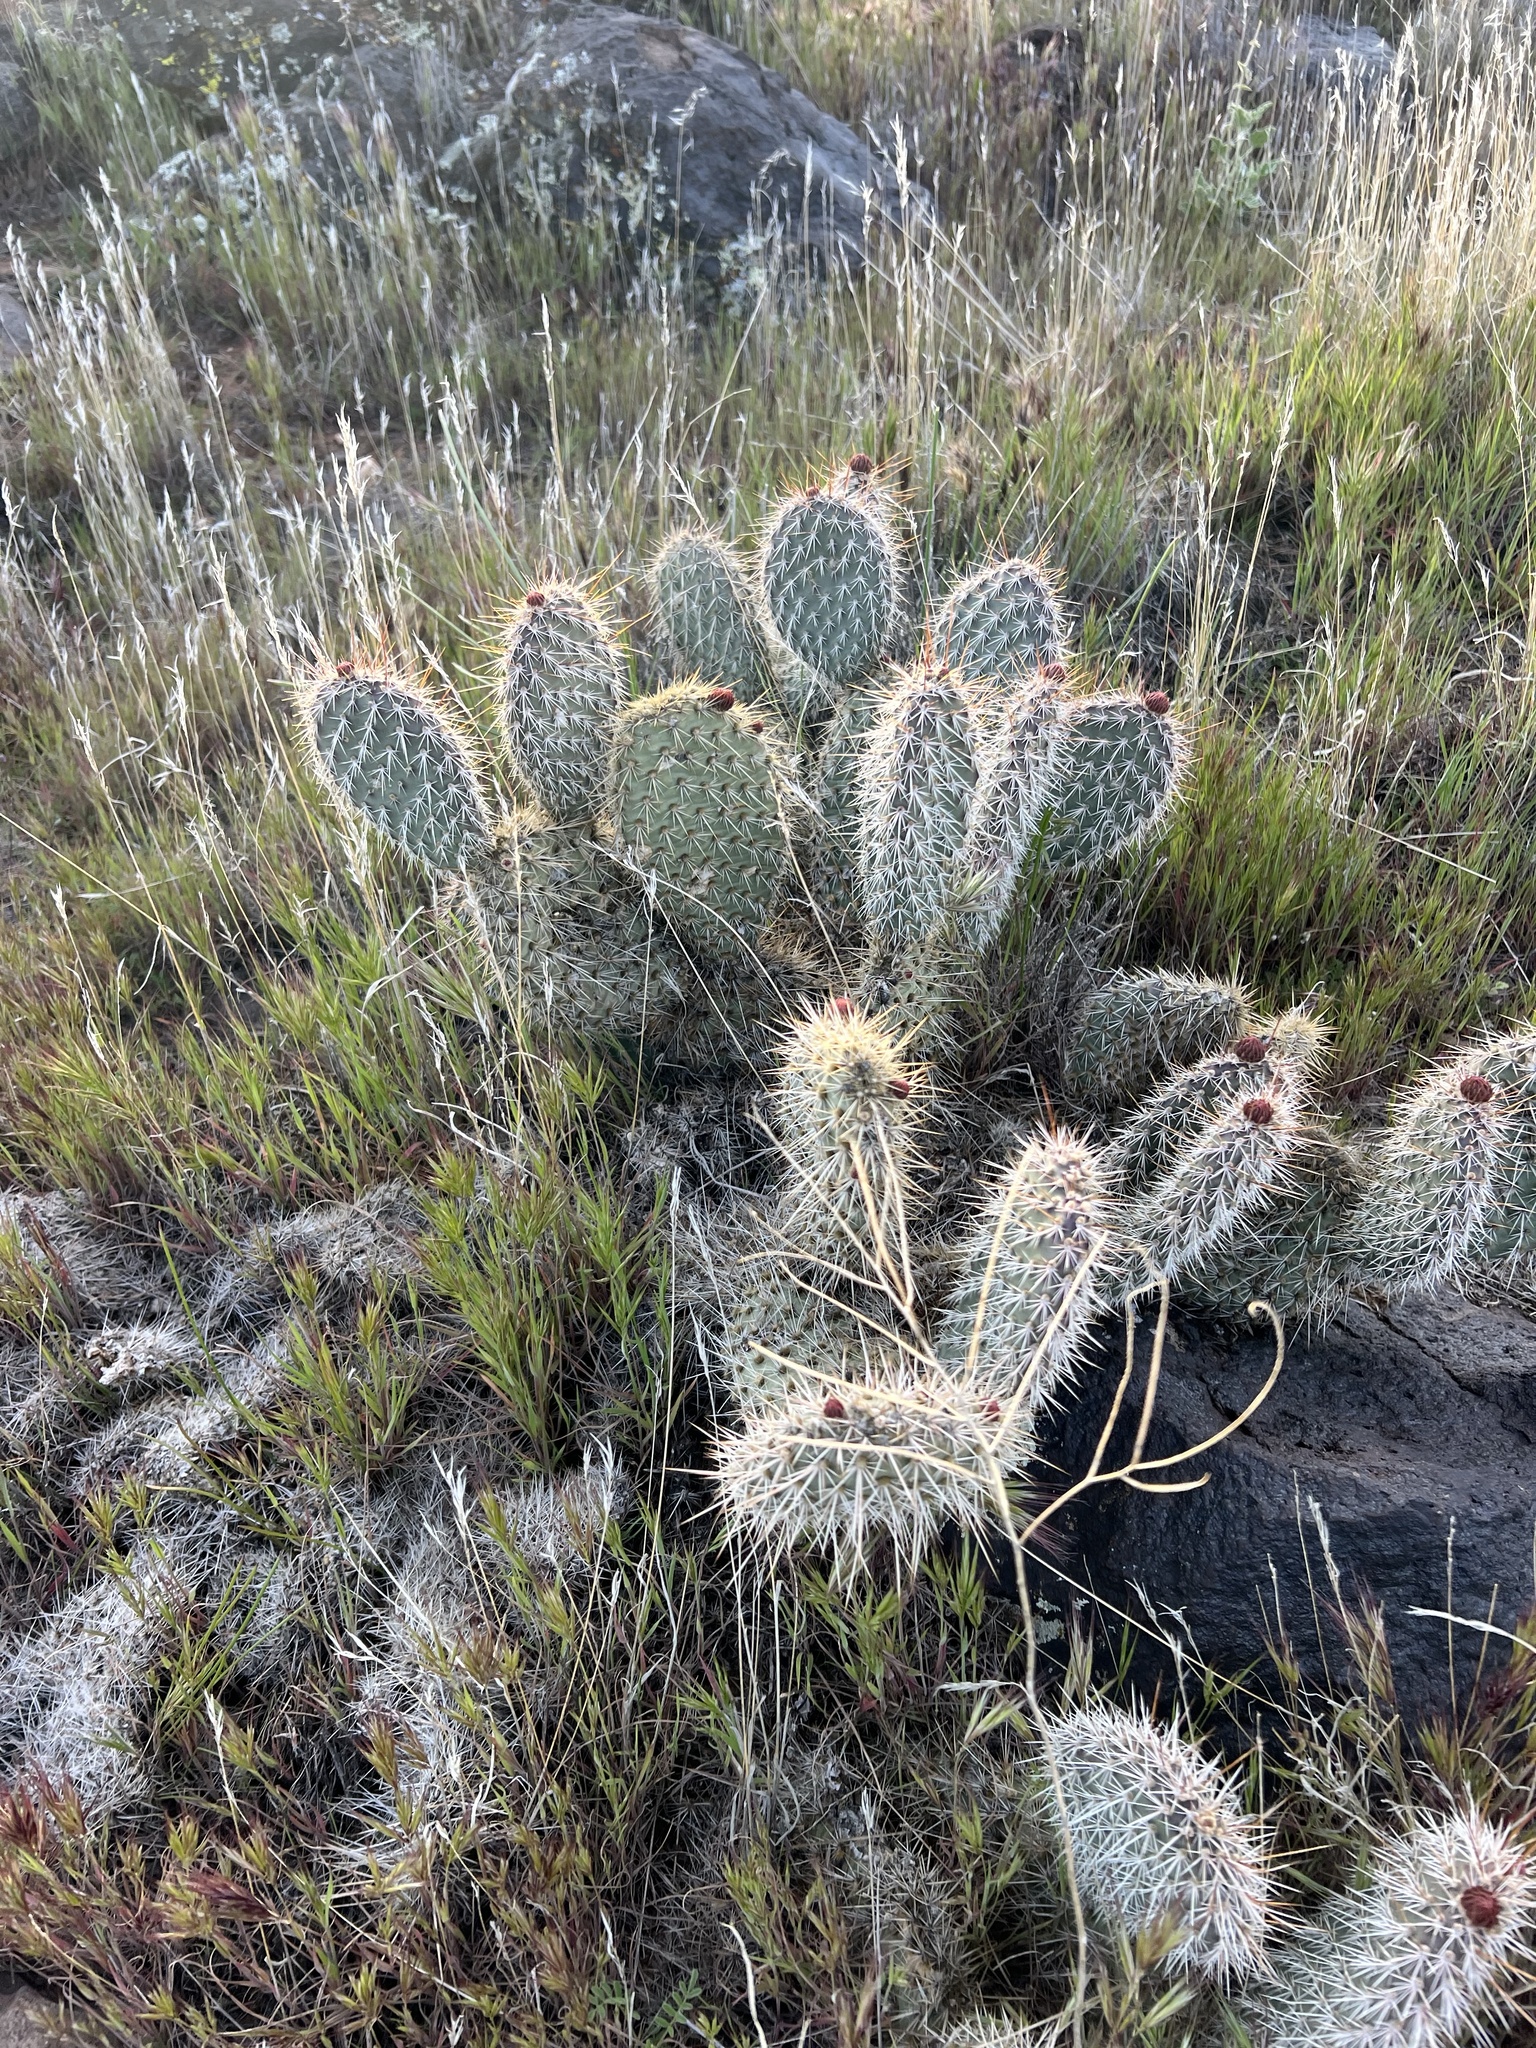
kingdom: Plantae
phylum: Tracheophyta
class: Magnoliopsida
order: Caryophyllales
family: Cactaceae
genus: Opuntia
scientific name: Opuntia polyacantha
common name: Plains prickly-pear
